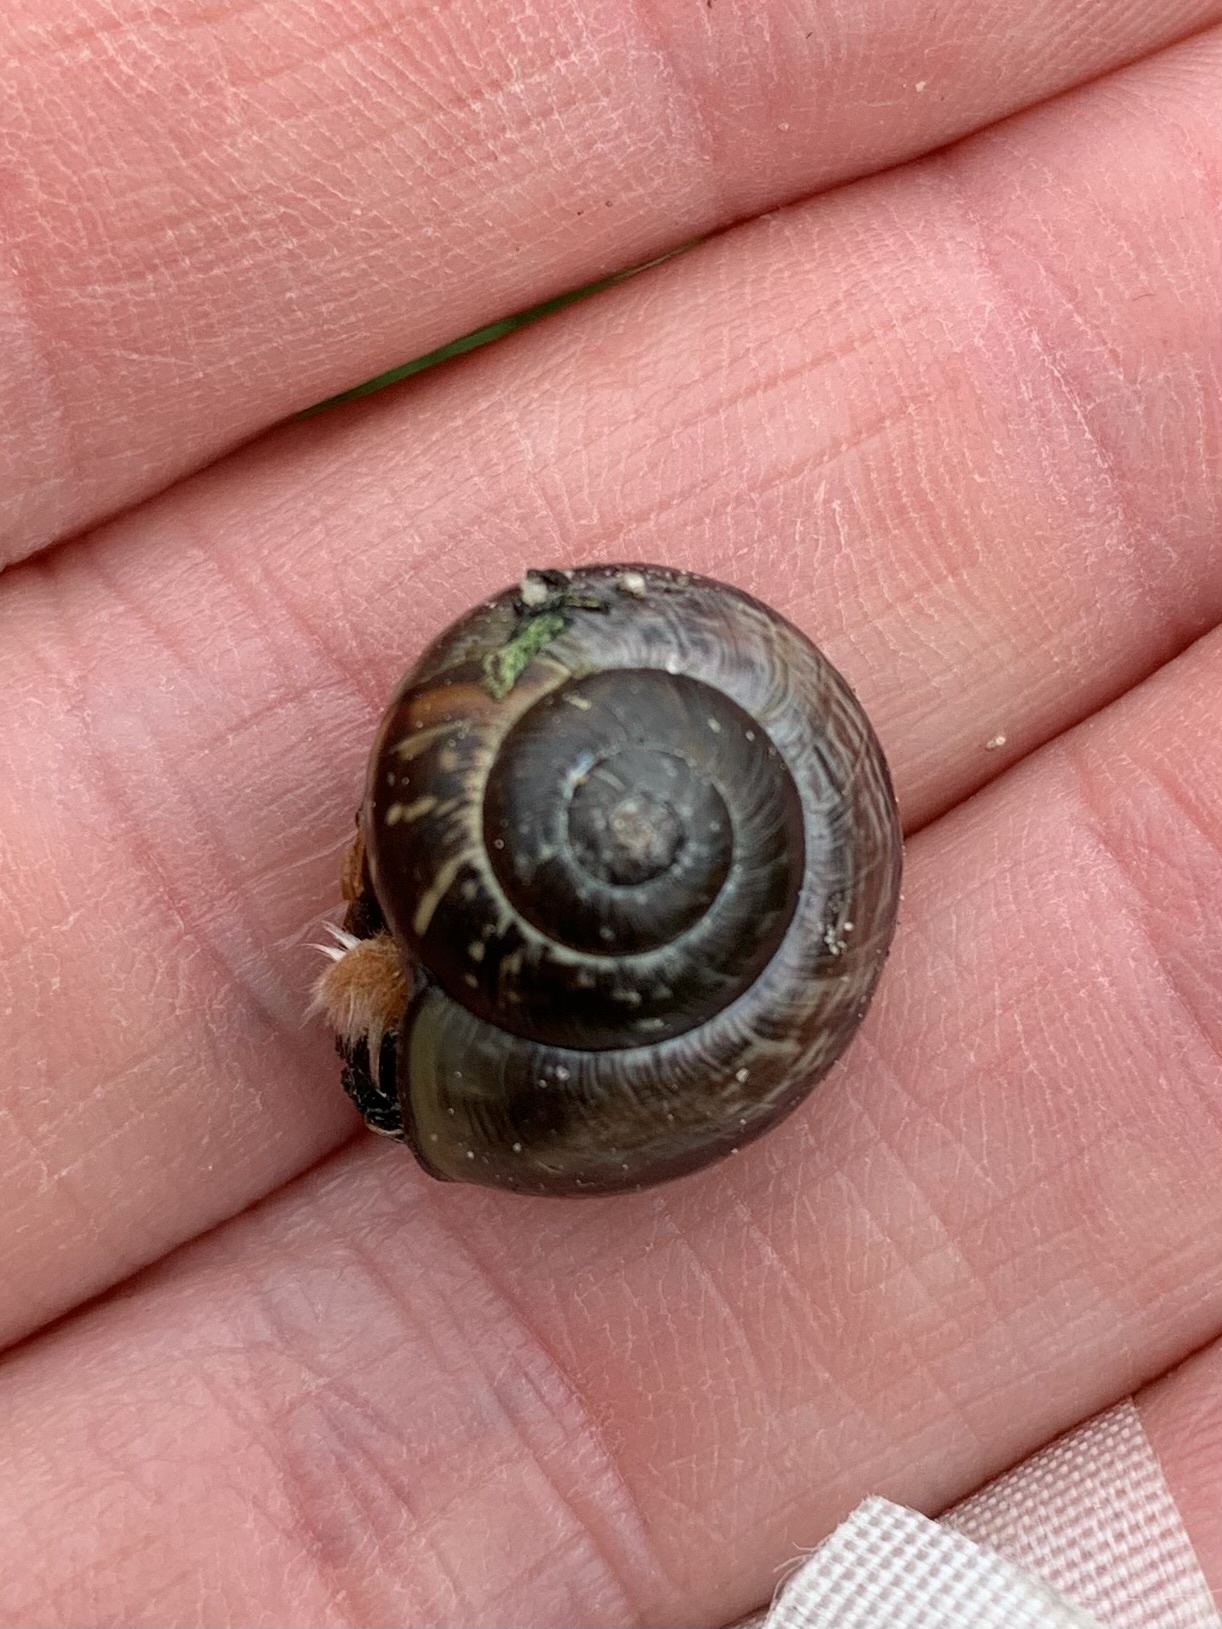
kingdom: Animalia
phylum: Mollusca
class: Gastropoda
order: Stylommatophora
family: Helicidae
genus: Arianta
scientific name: Arianta arbustorum
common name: Copse snail
